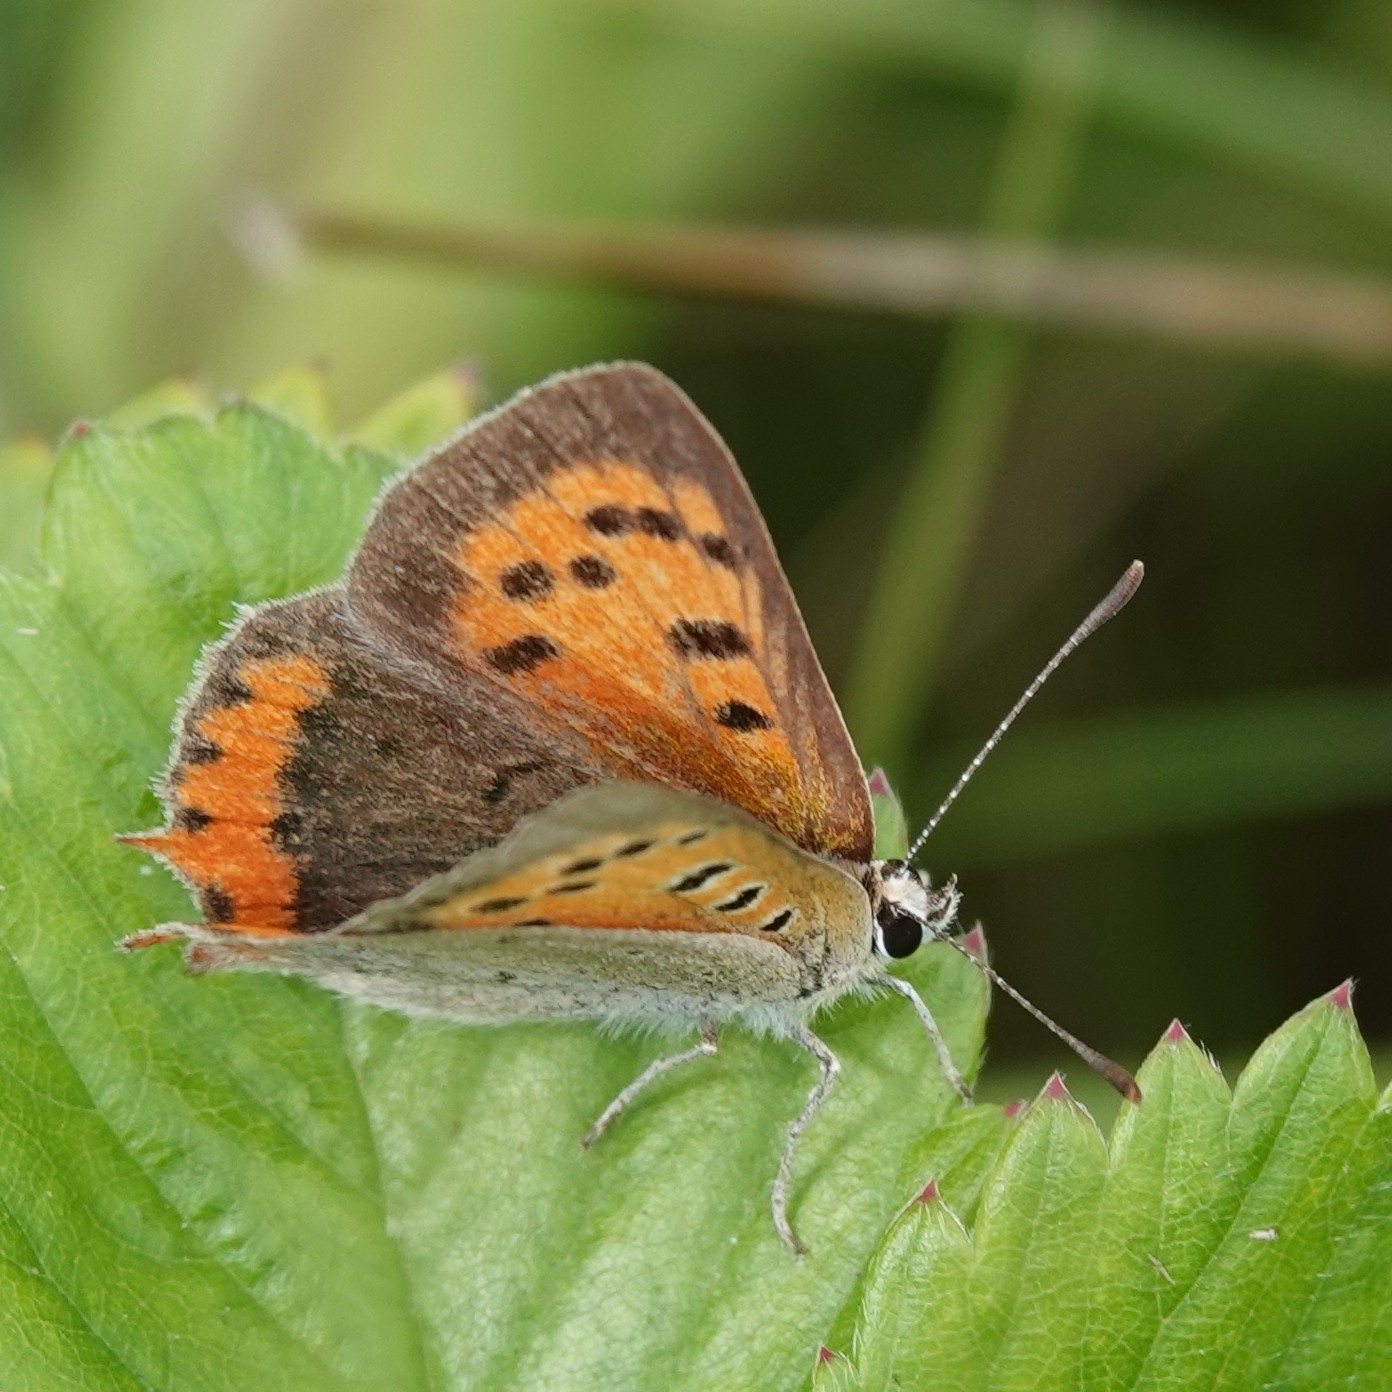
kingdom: Animalia
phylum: Arthropoda
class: Insecta
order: Lepidoptera
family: Lycaenidae
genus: Lycaena
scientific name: Lycaena phlaeas
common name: Small copper
